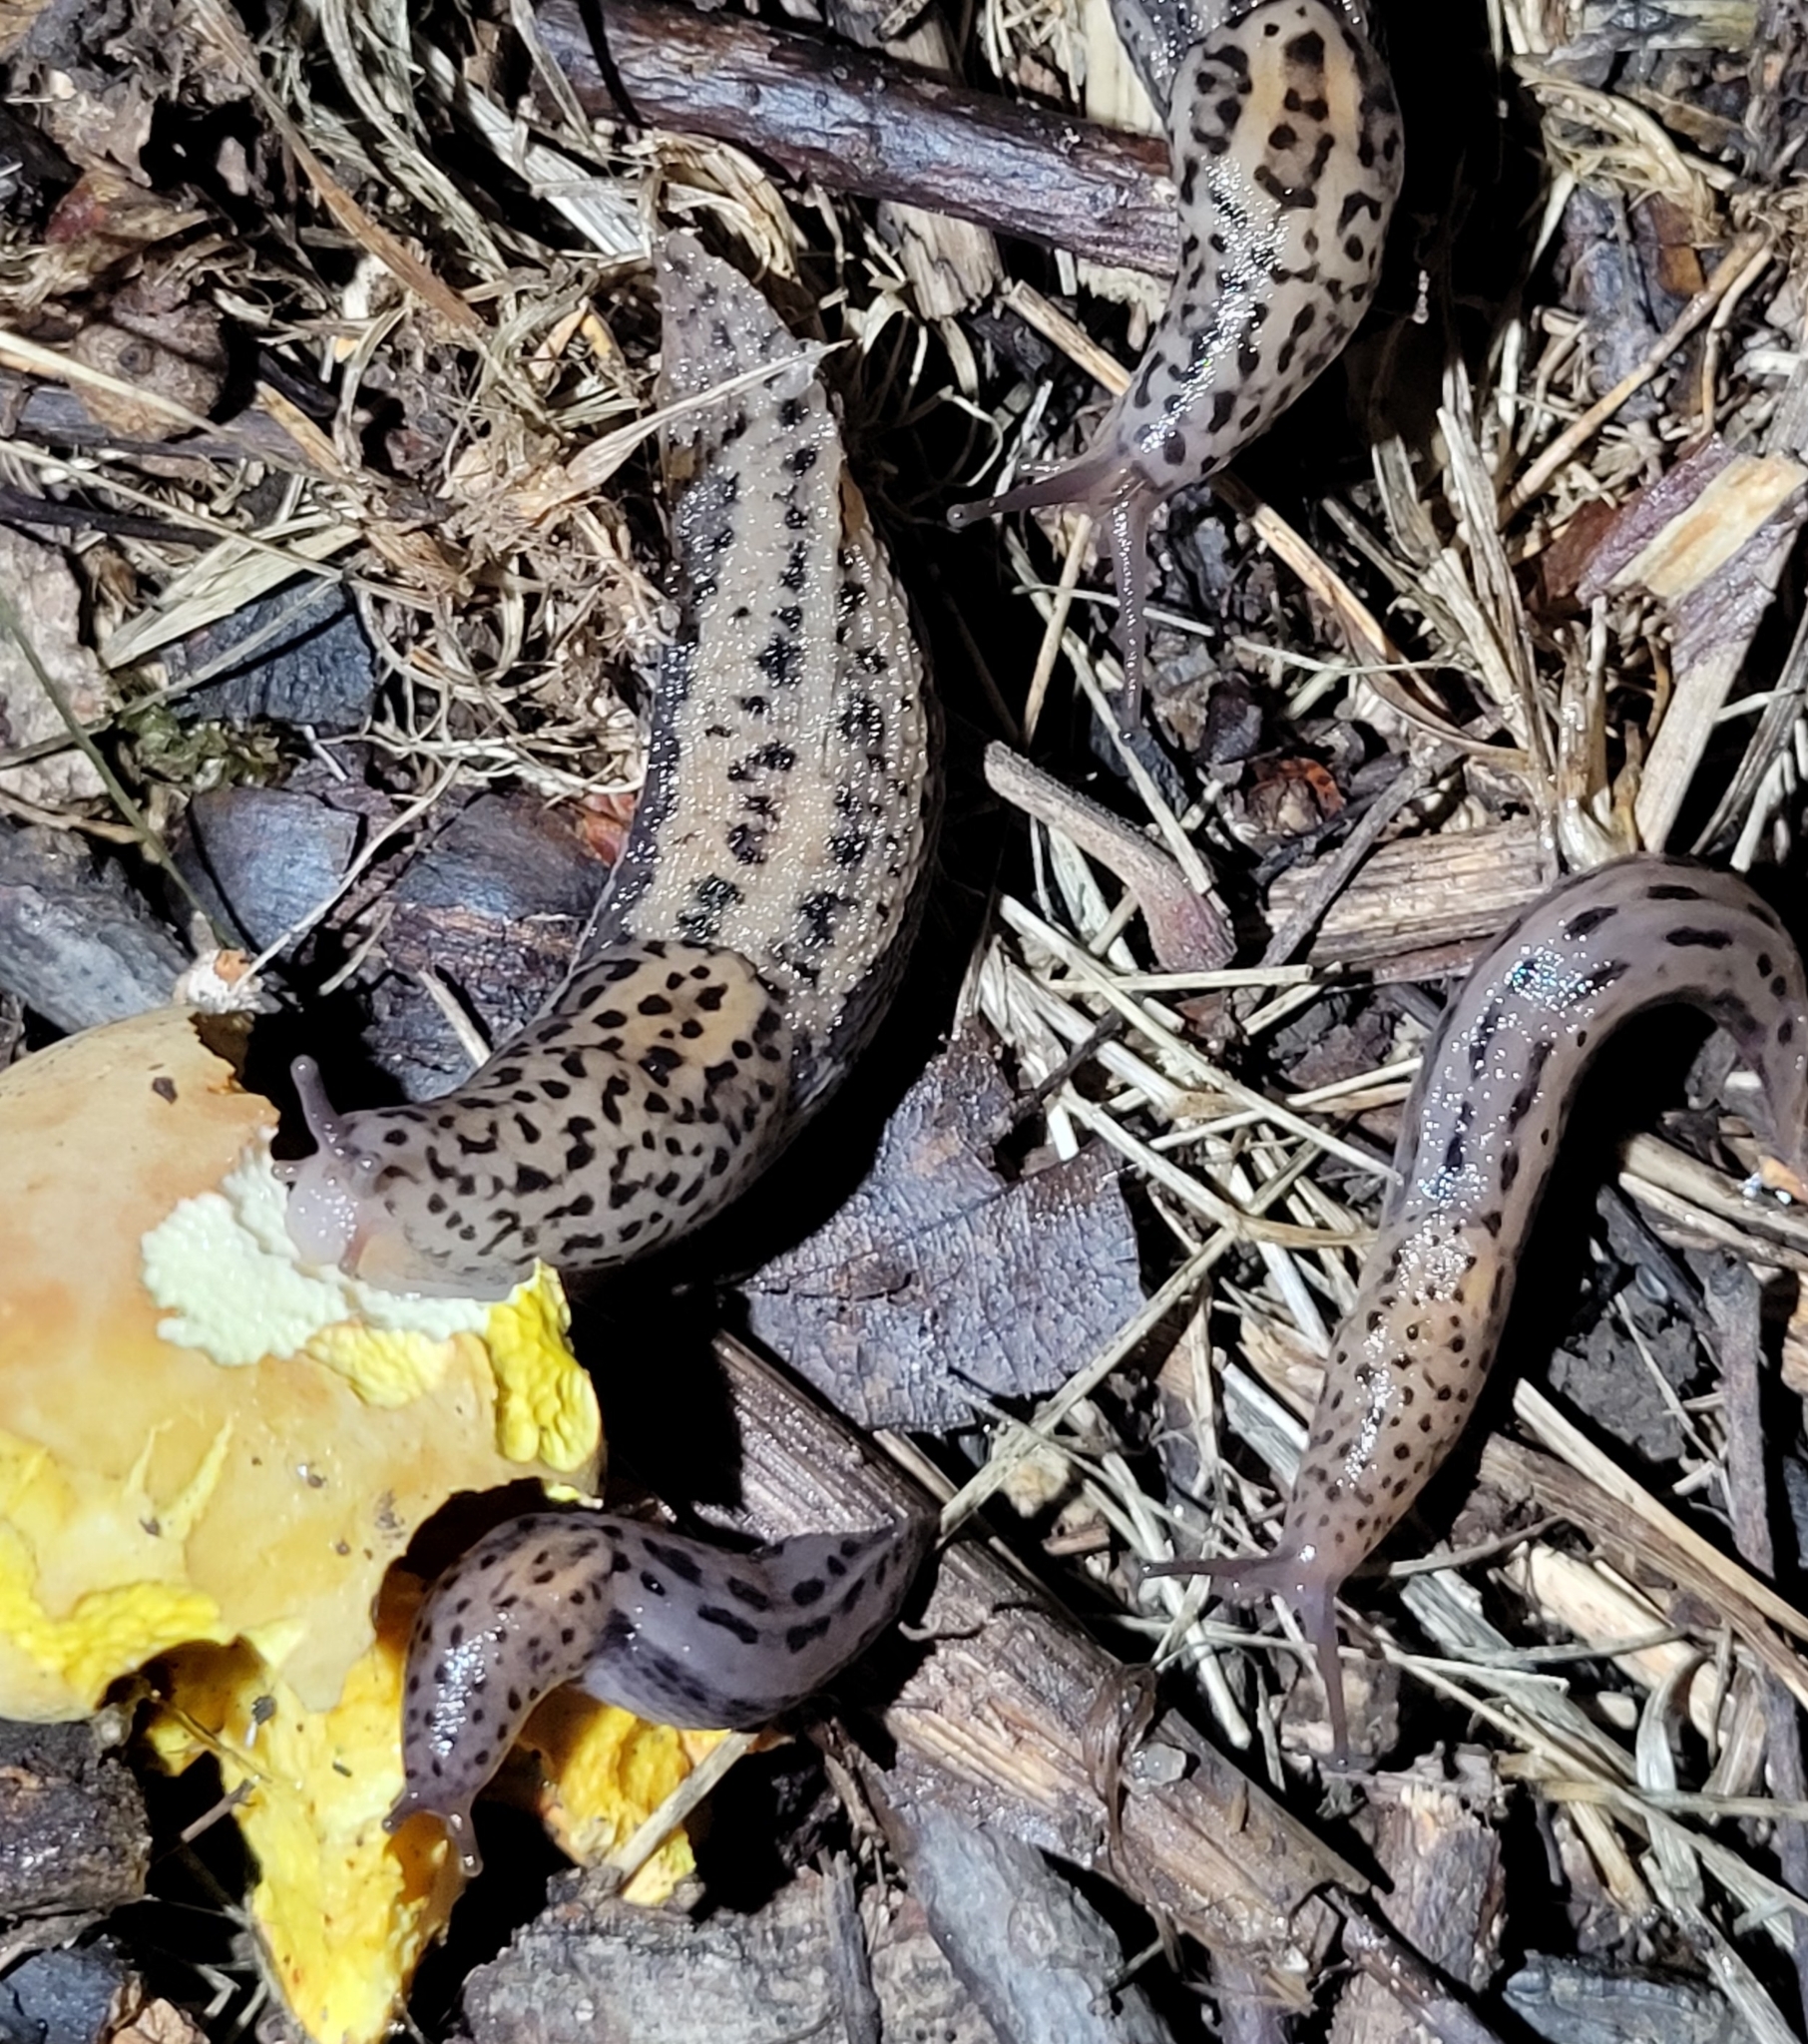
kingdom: Animalia
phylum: Mollusca
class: Gastropoda
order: Stylommatophora
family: Limacidae
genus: Limax
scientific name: Limax maximus
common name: Great grey slug
